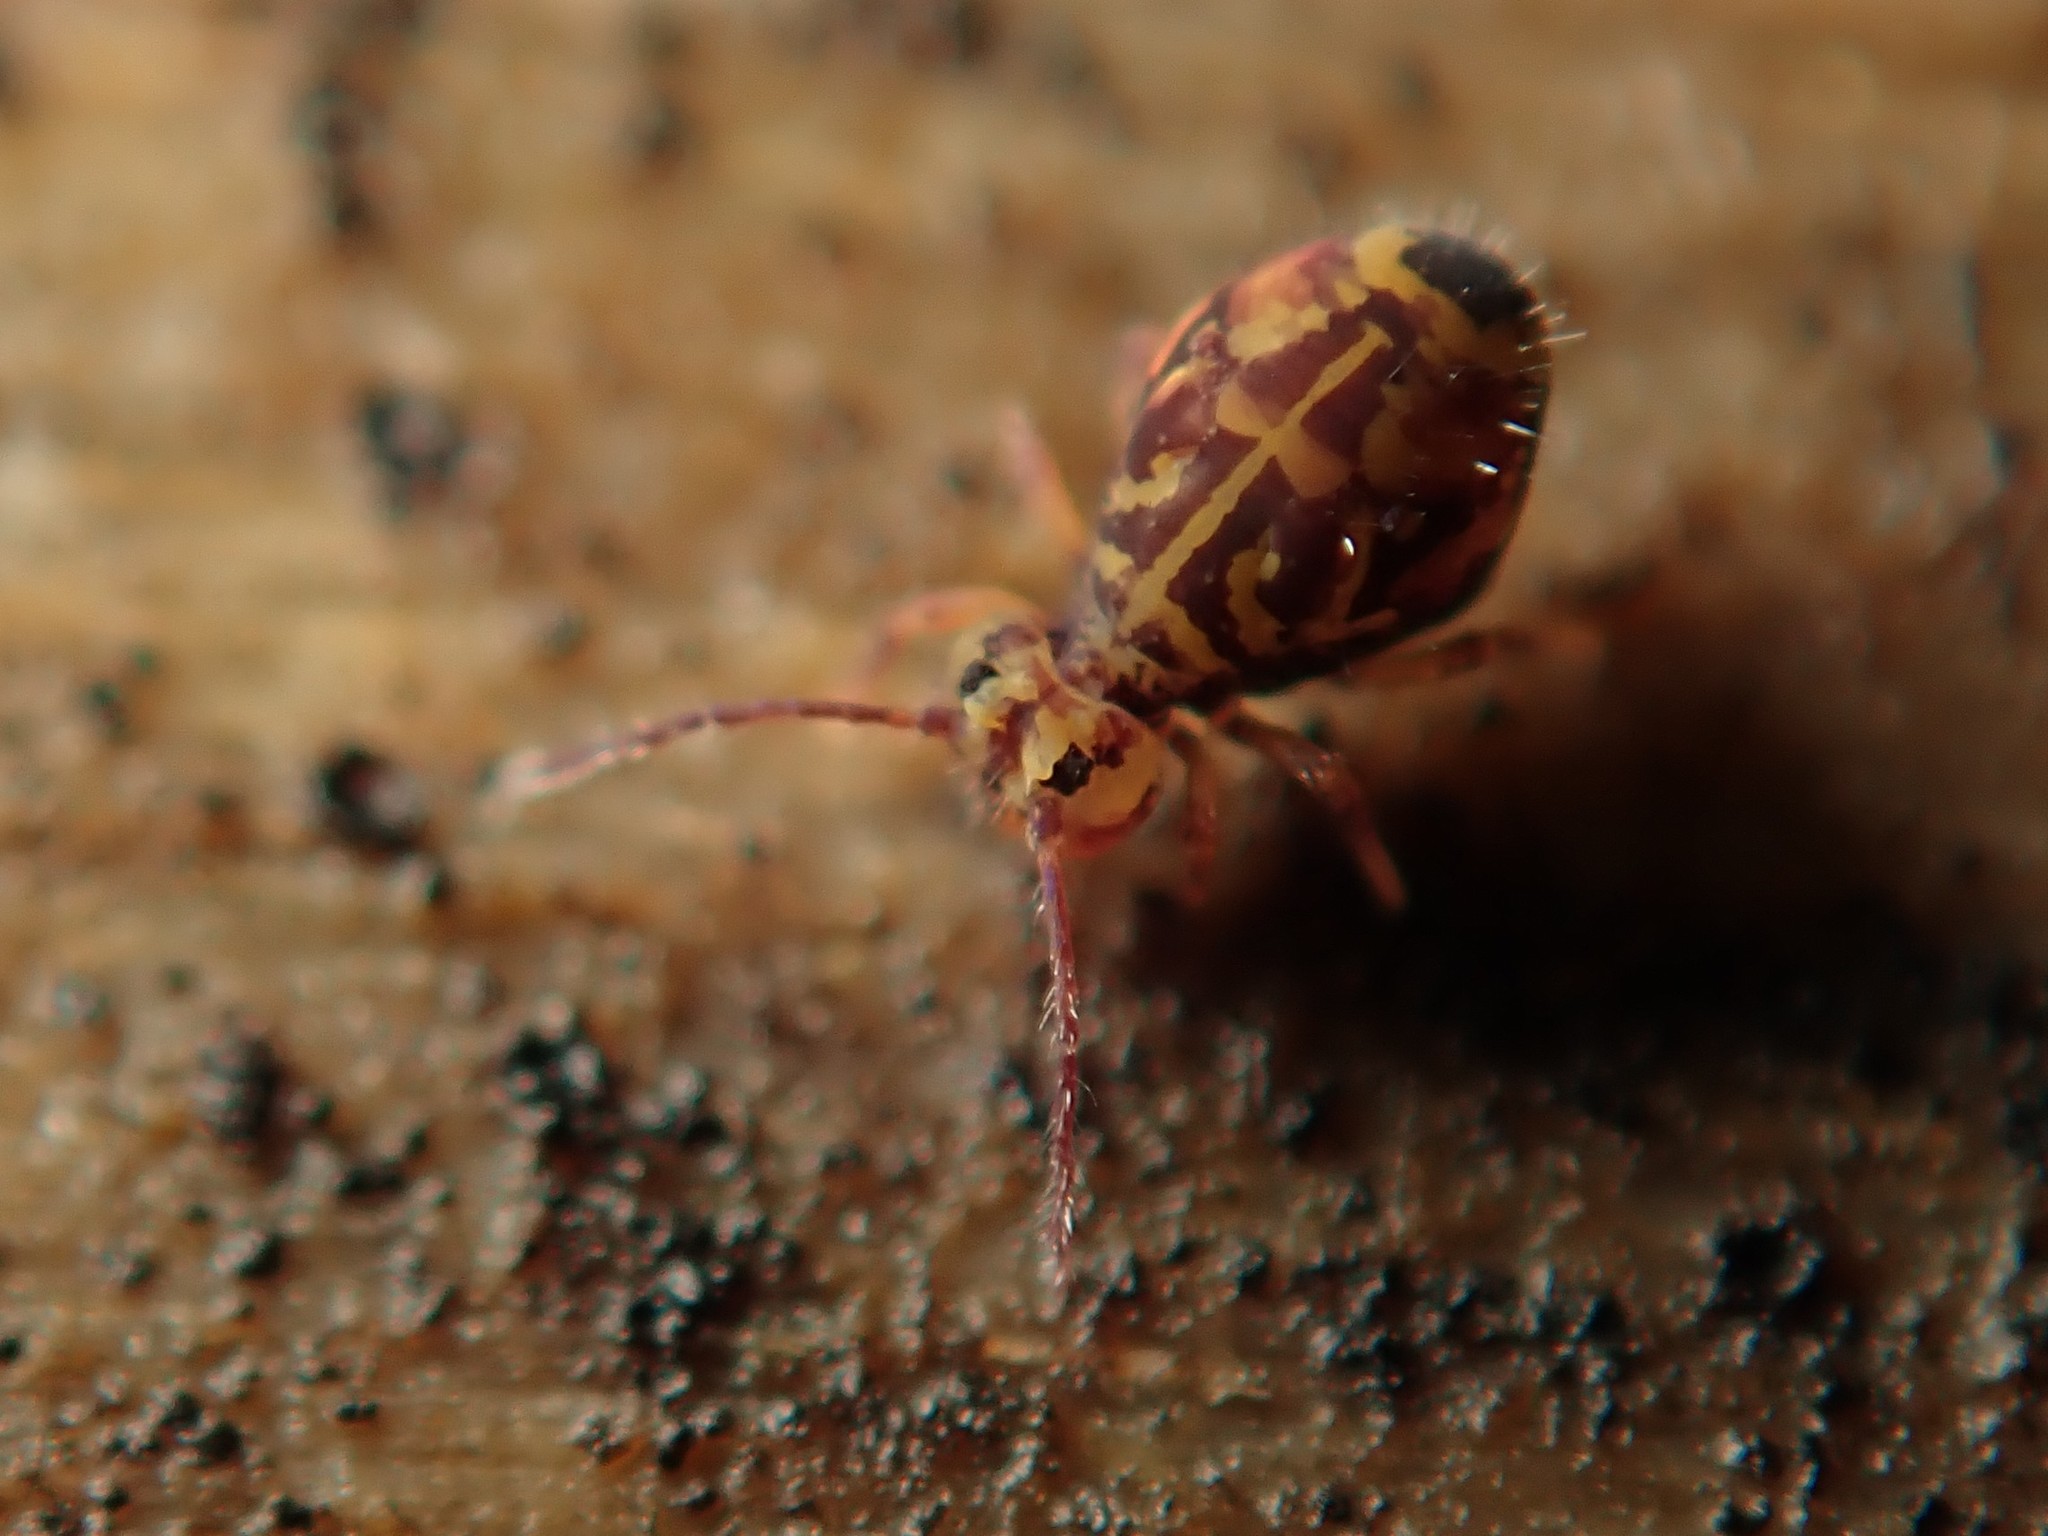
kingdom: Animalia
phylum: Arthropoda
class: Collembola
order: Symphypleona
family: Dicyrtomidae
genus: Dicyrtomina
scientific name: Dicyrtomina ornata
